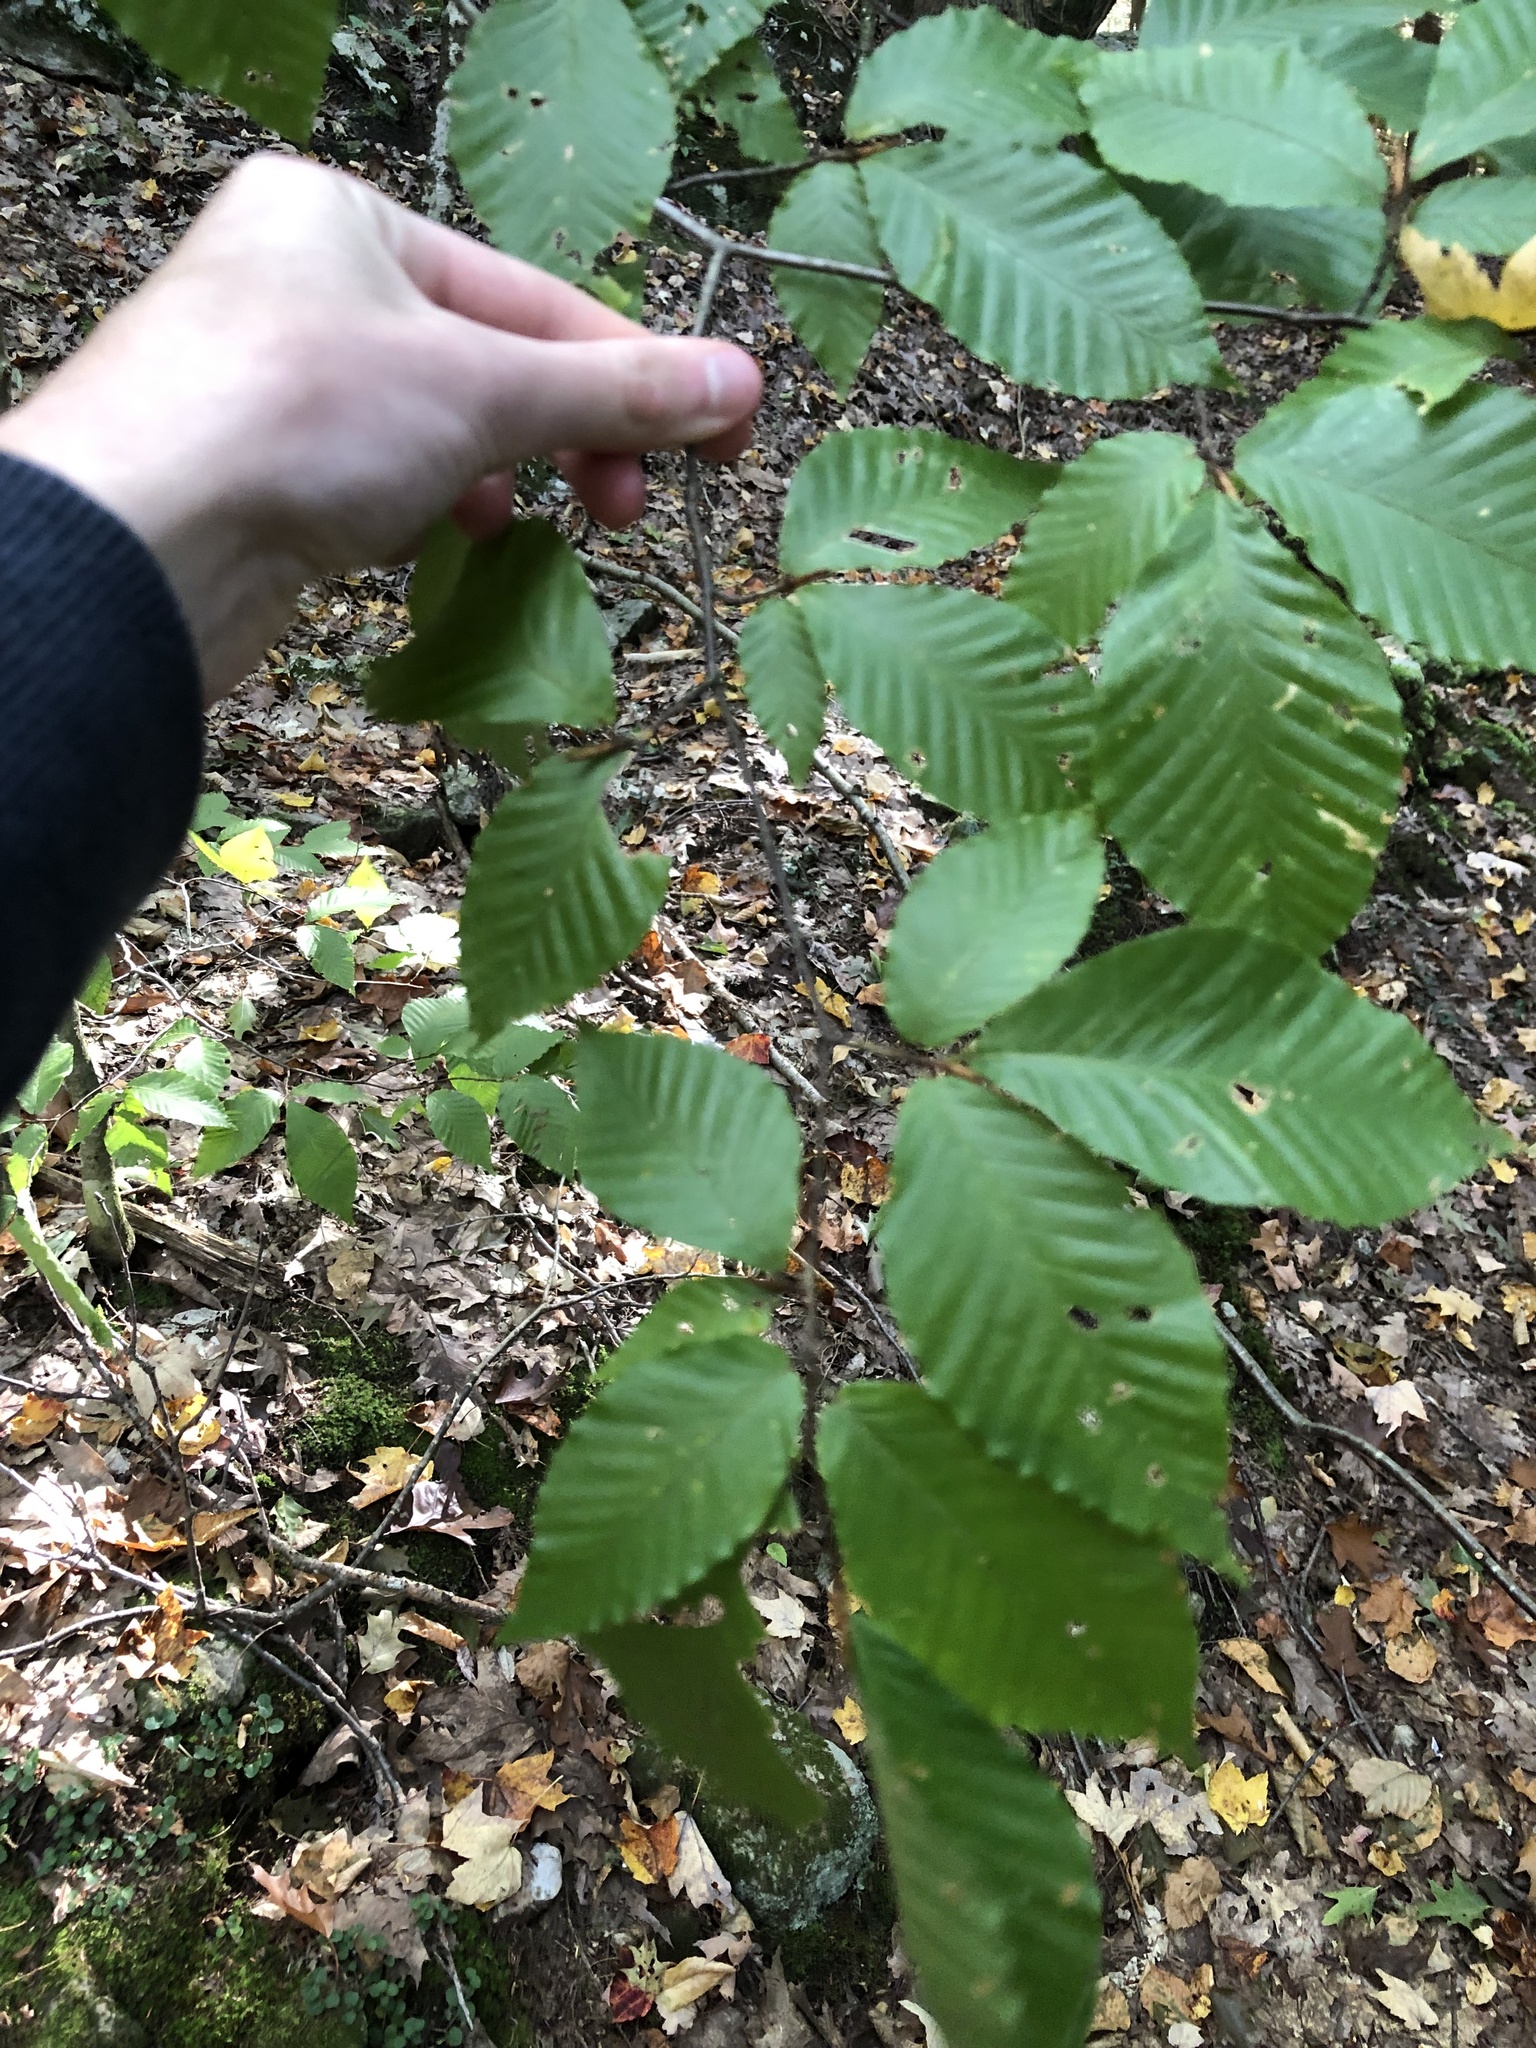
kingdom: Plantae
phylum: Tracheophyta
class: Magnoliopsida
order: Fagales
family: Fagaceae
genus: Fagus
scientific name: Fagus grandifolia
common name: American beech
